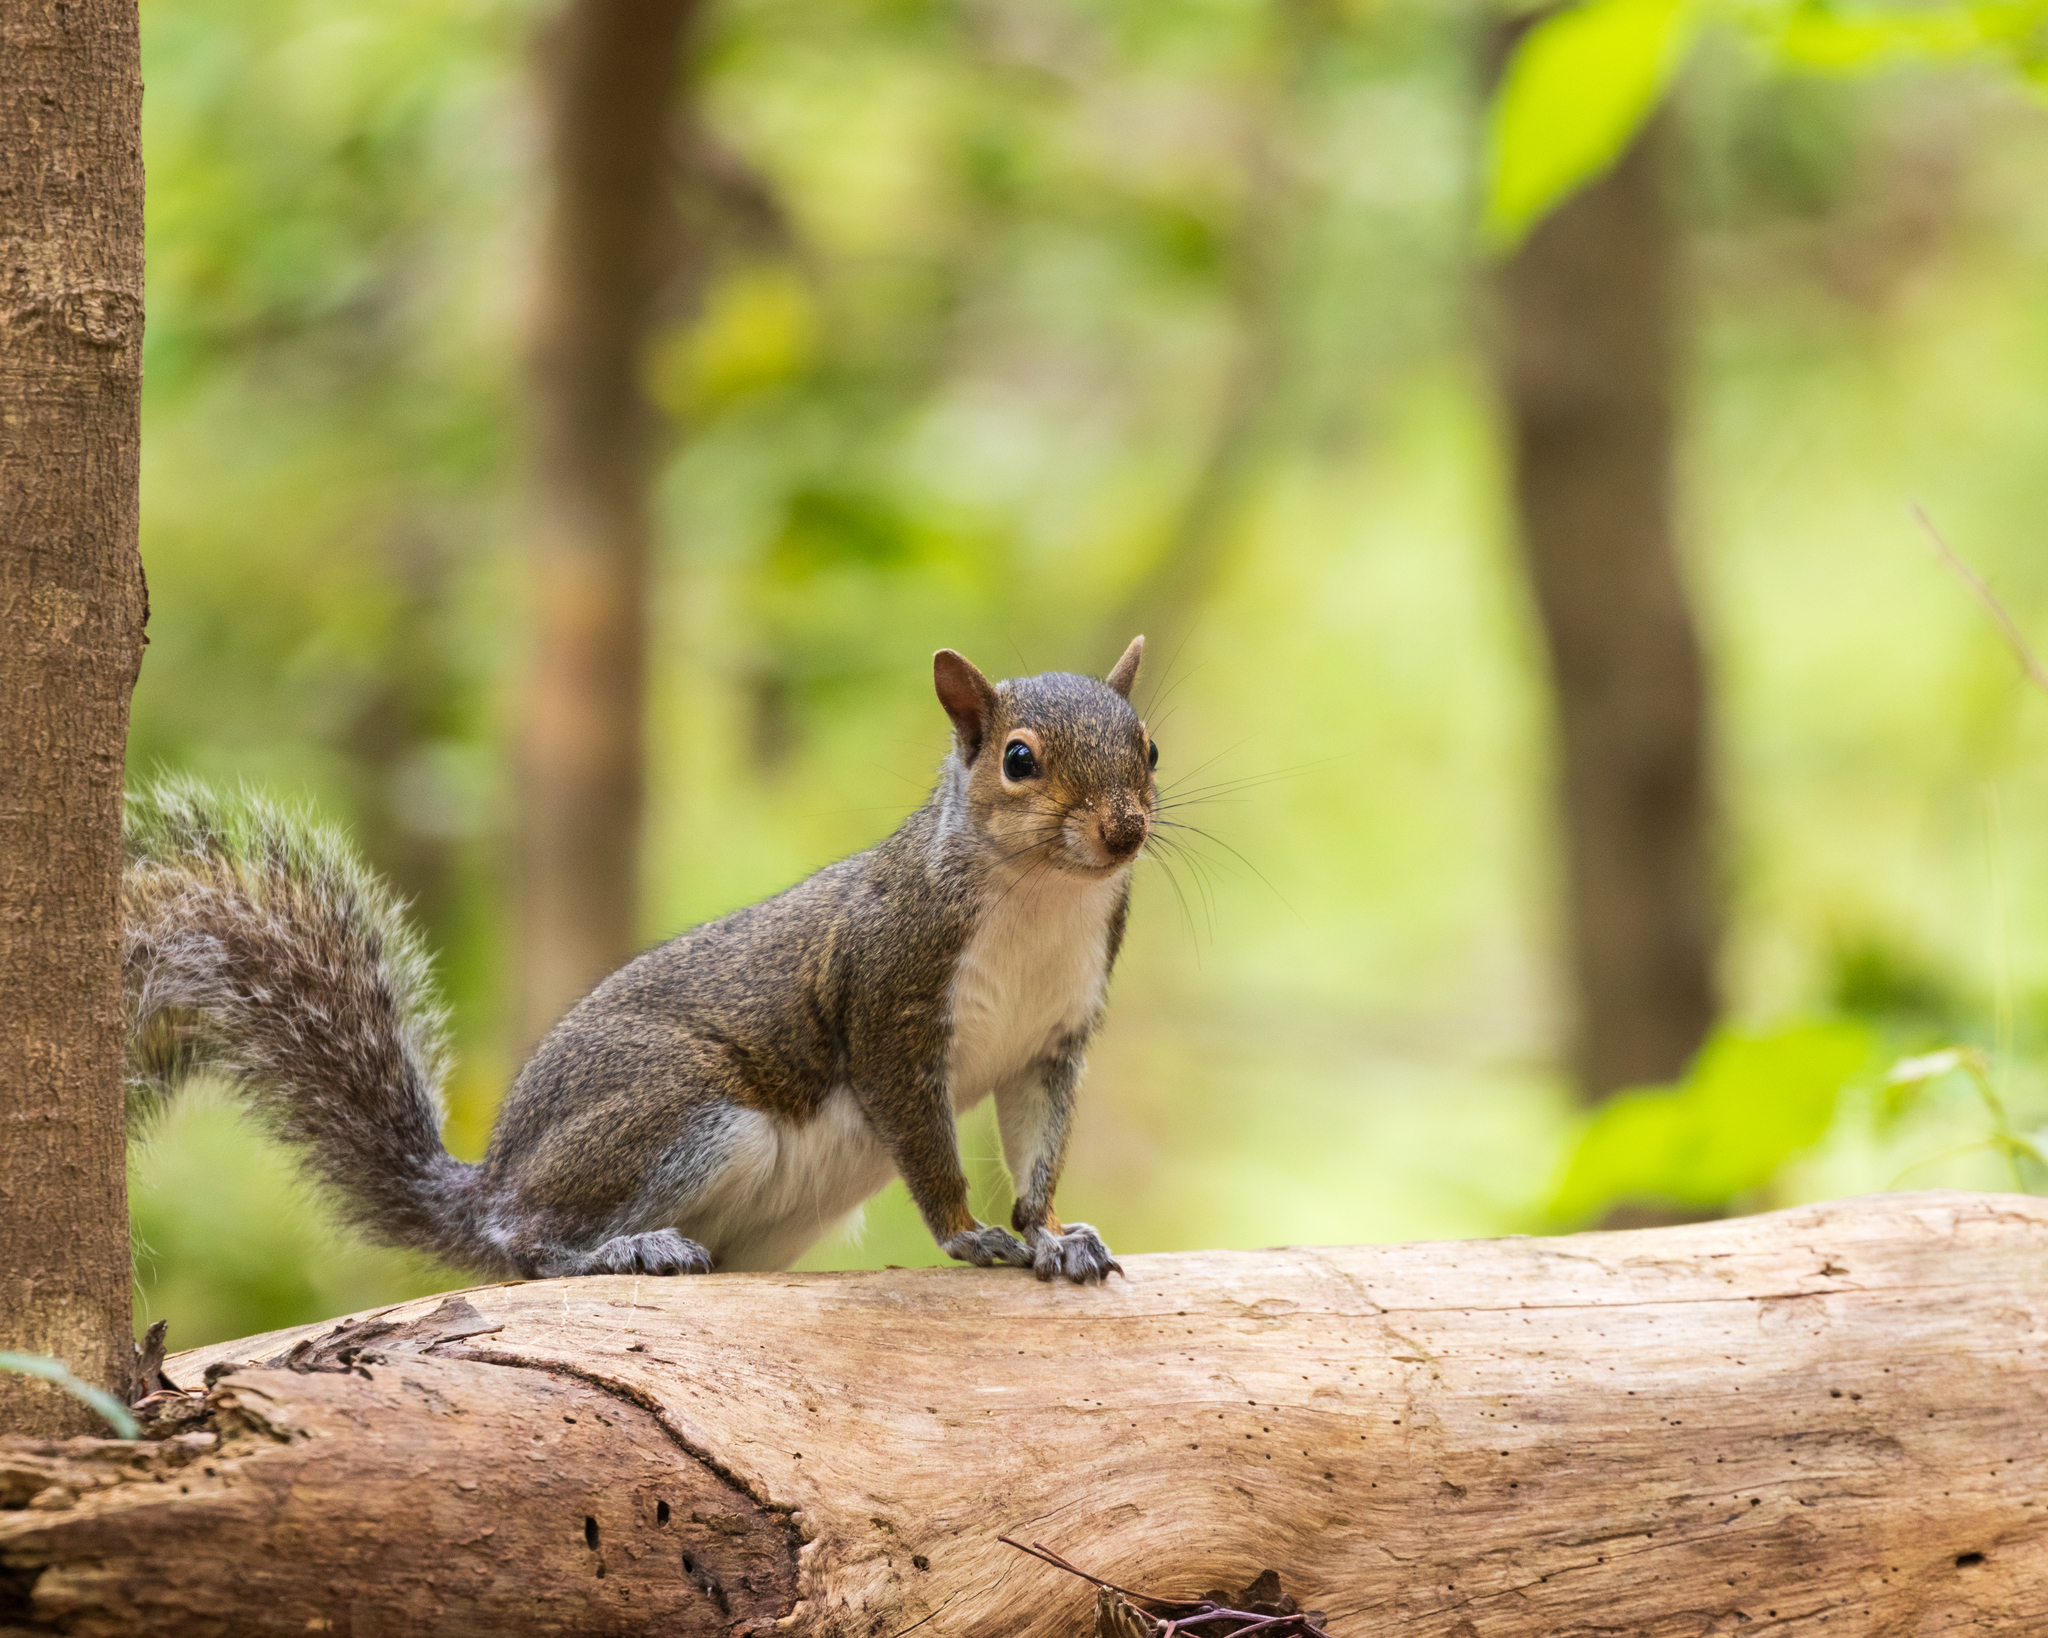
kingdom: Animalia
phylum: Chordata
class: Mammalia
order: Rodentia
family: Sciuridae
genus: Sciurus
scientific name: Sciurus carolinensis
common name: Eastern gray squirrel
